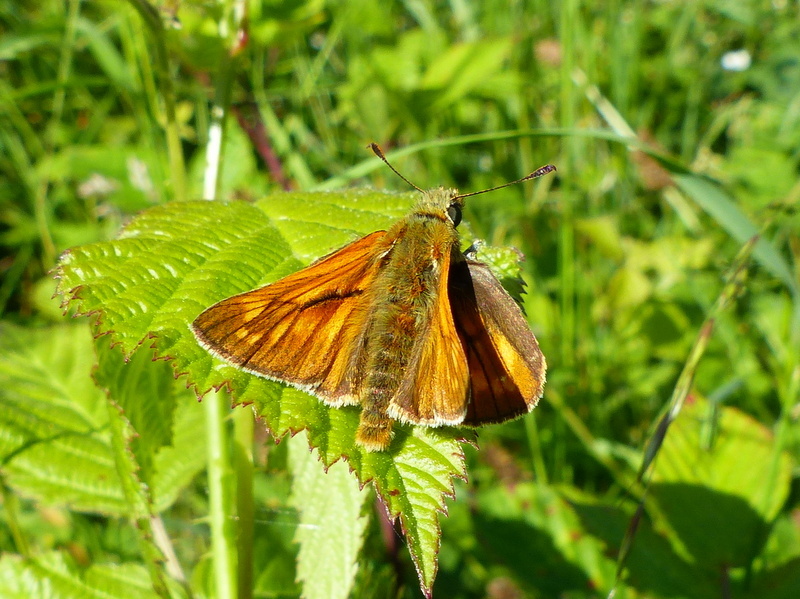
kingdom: Animalia
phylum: Arthropoda
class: Insecta
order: Lepidoptera
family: Hesperiidae
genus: Ochlodes
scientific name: Ochlodes venata
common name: Large skipper
